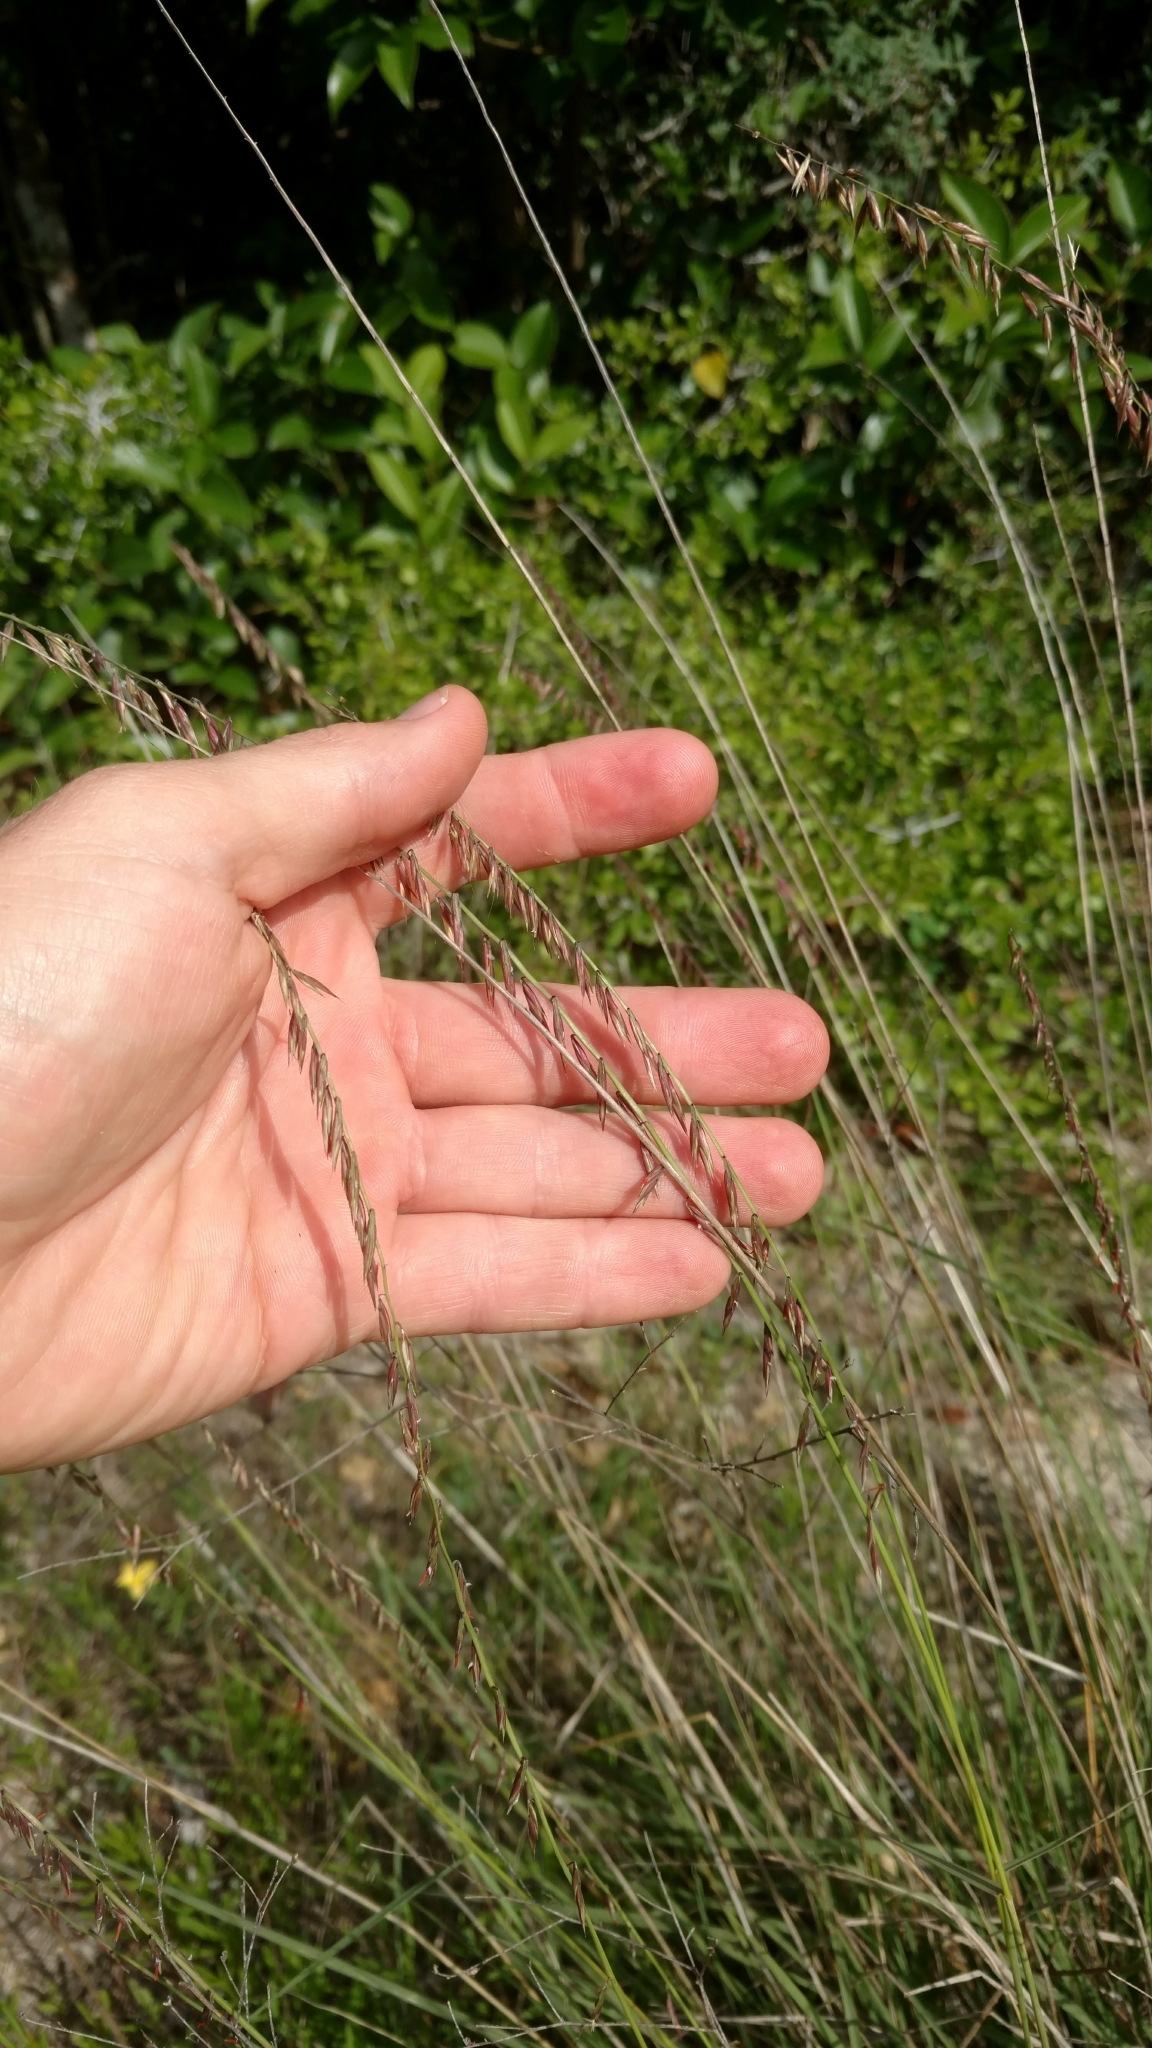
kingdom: Plantae
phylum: Tracheophyta
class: Liliopsida
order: Poales
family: Poaceae
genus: Bouteloua
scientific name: Bouteloua curtipendula
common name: Side-oats grama
